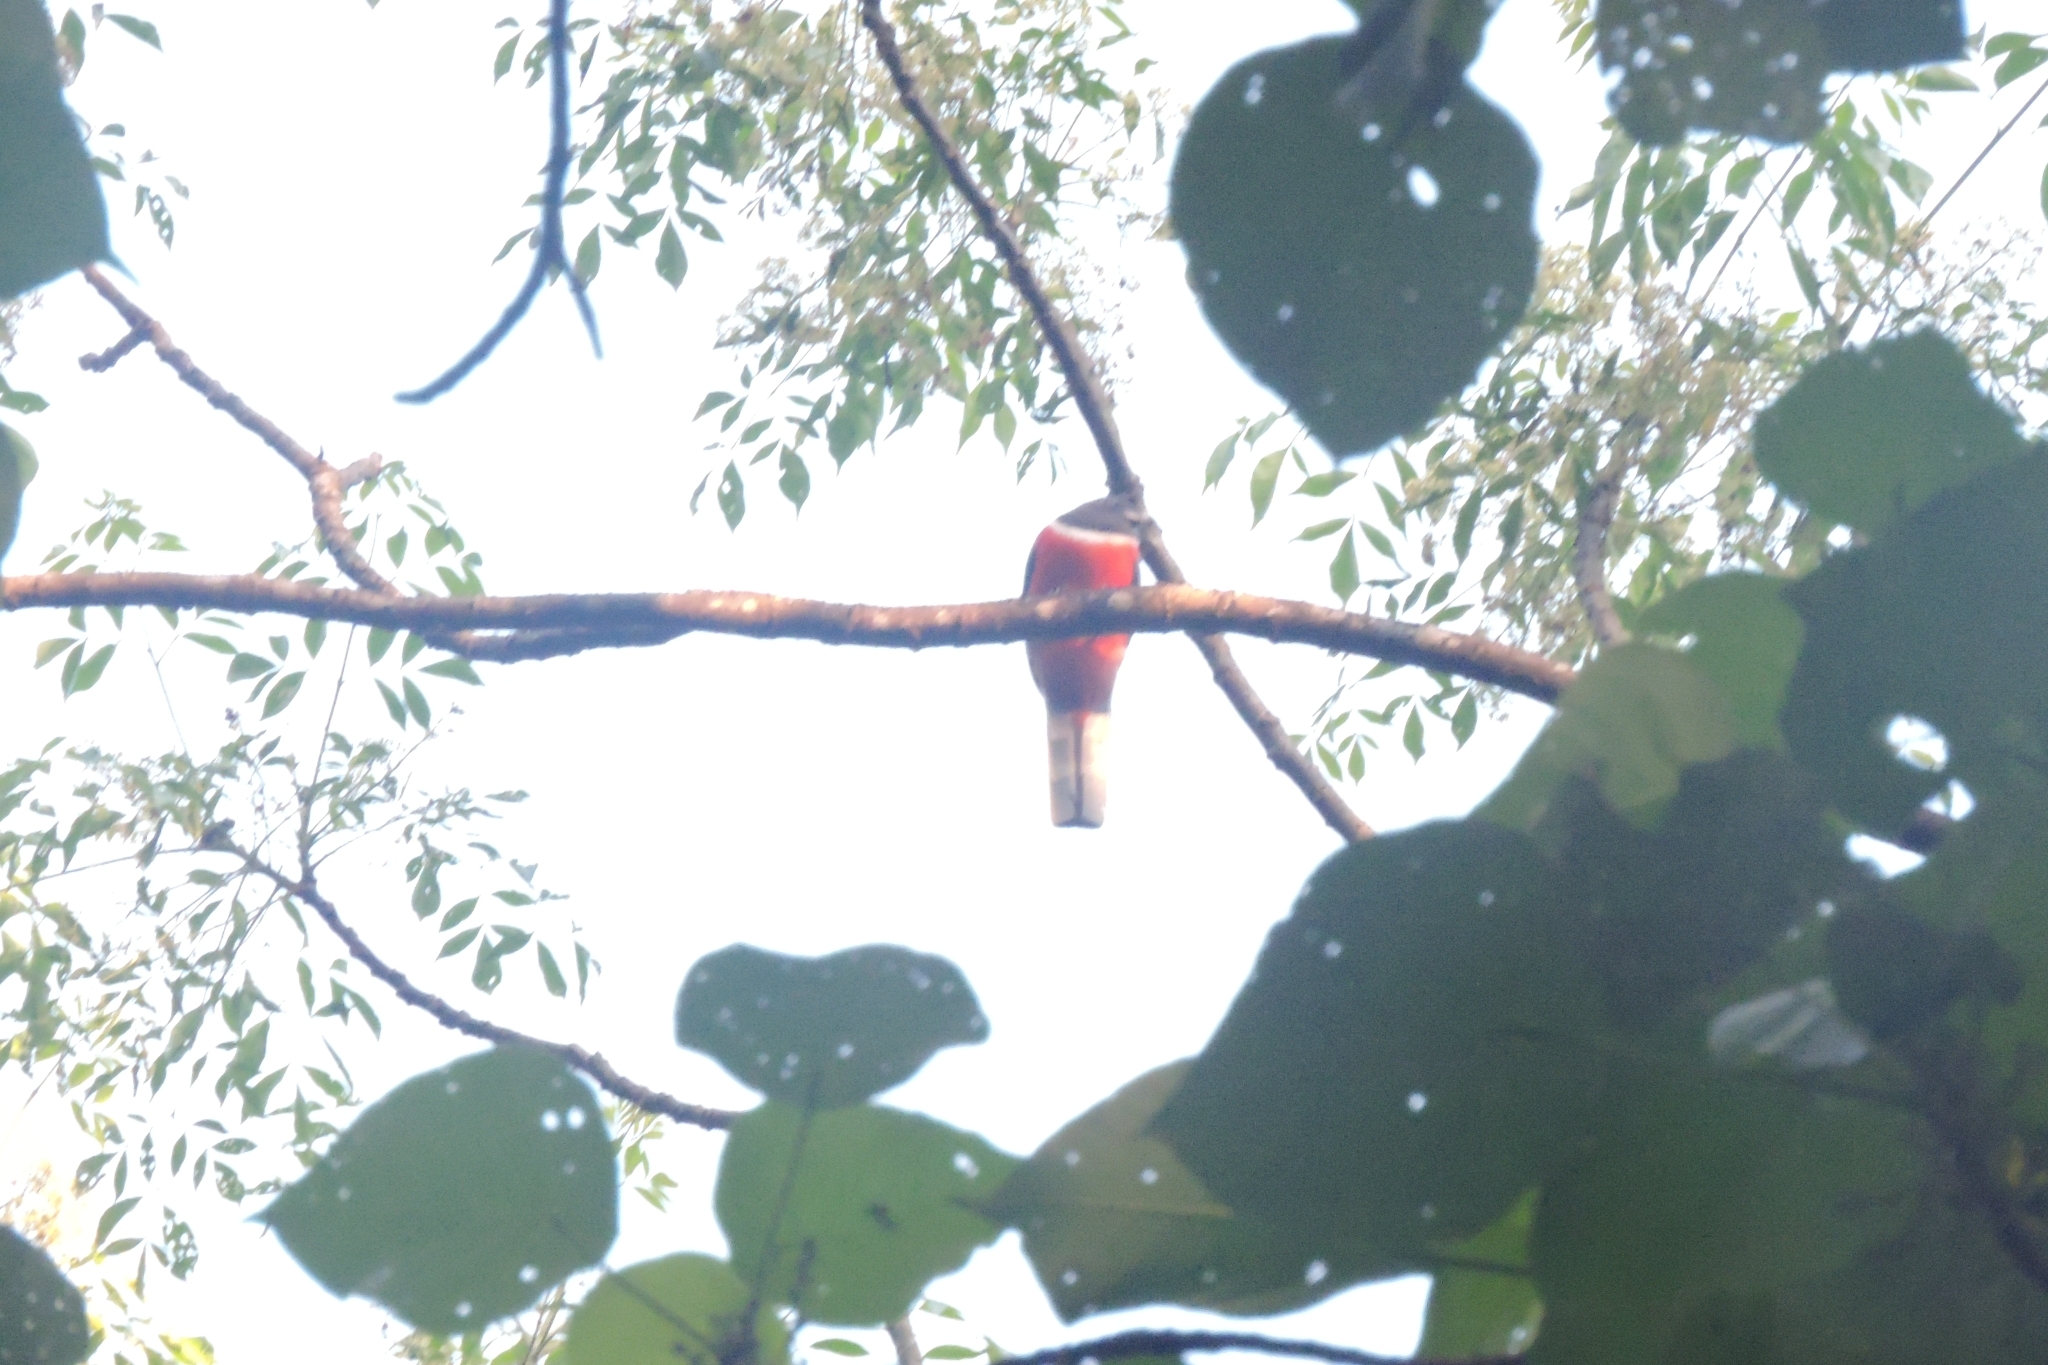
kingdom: Animalia
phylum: Chordata
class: Aves
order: Trogoniformes
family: Trogonidae
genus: Harpactes
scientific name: Harpactes fasciatus
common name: Malabar trogon
